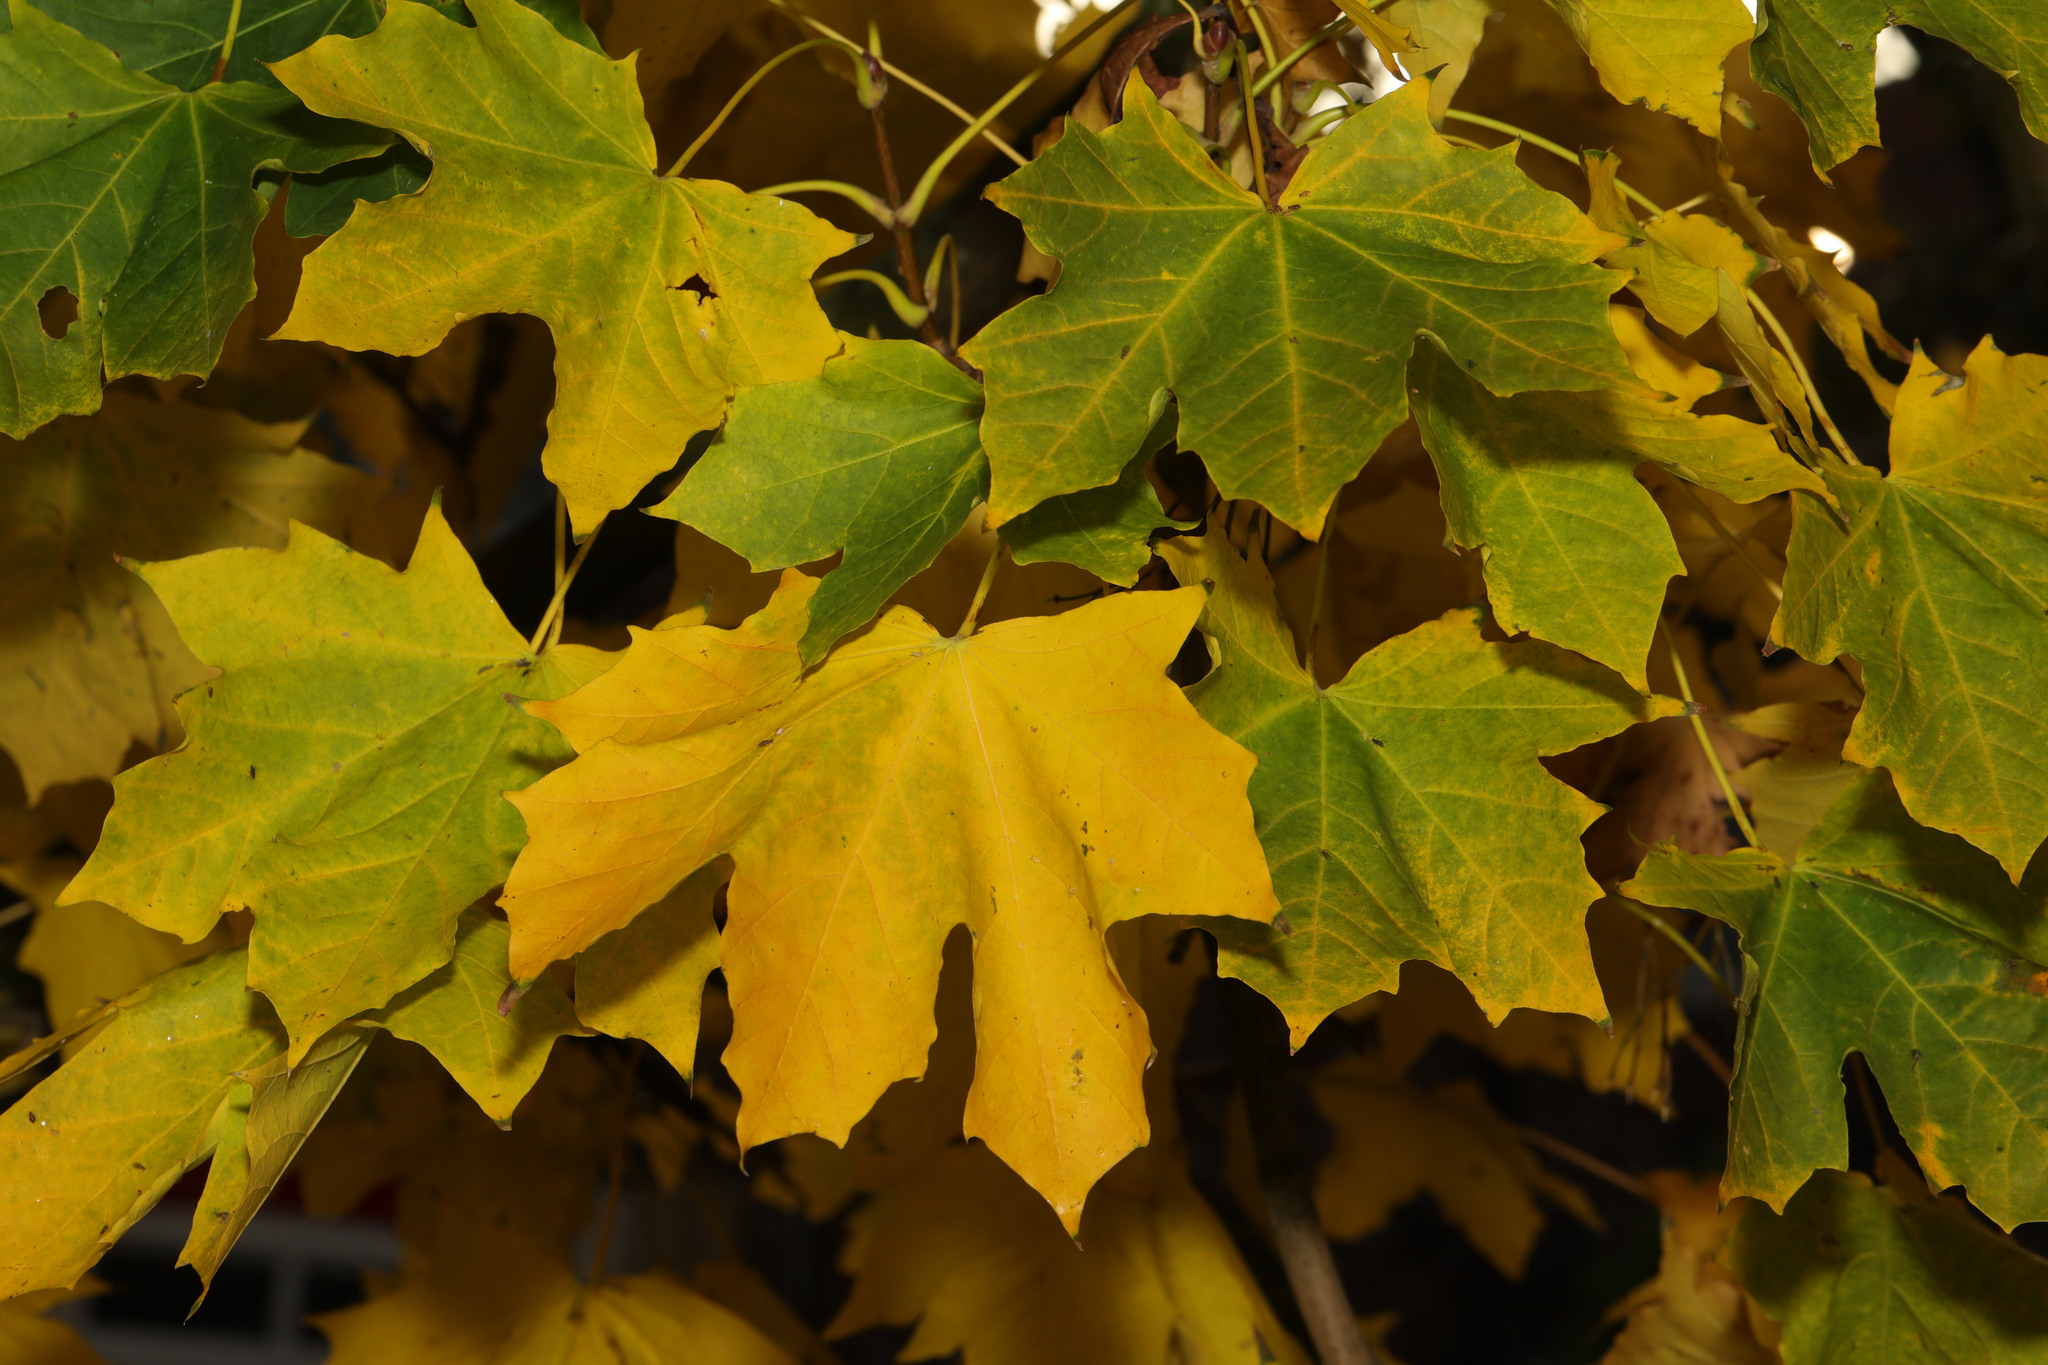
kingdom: Plantae
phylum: Tracheophyta
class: Magnoliopsida
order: Sapindales
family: Sapindaceae
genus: Acer
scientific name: Acer platanoides
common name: Norway maple
